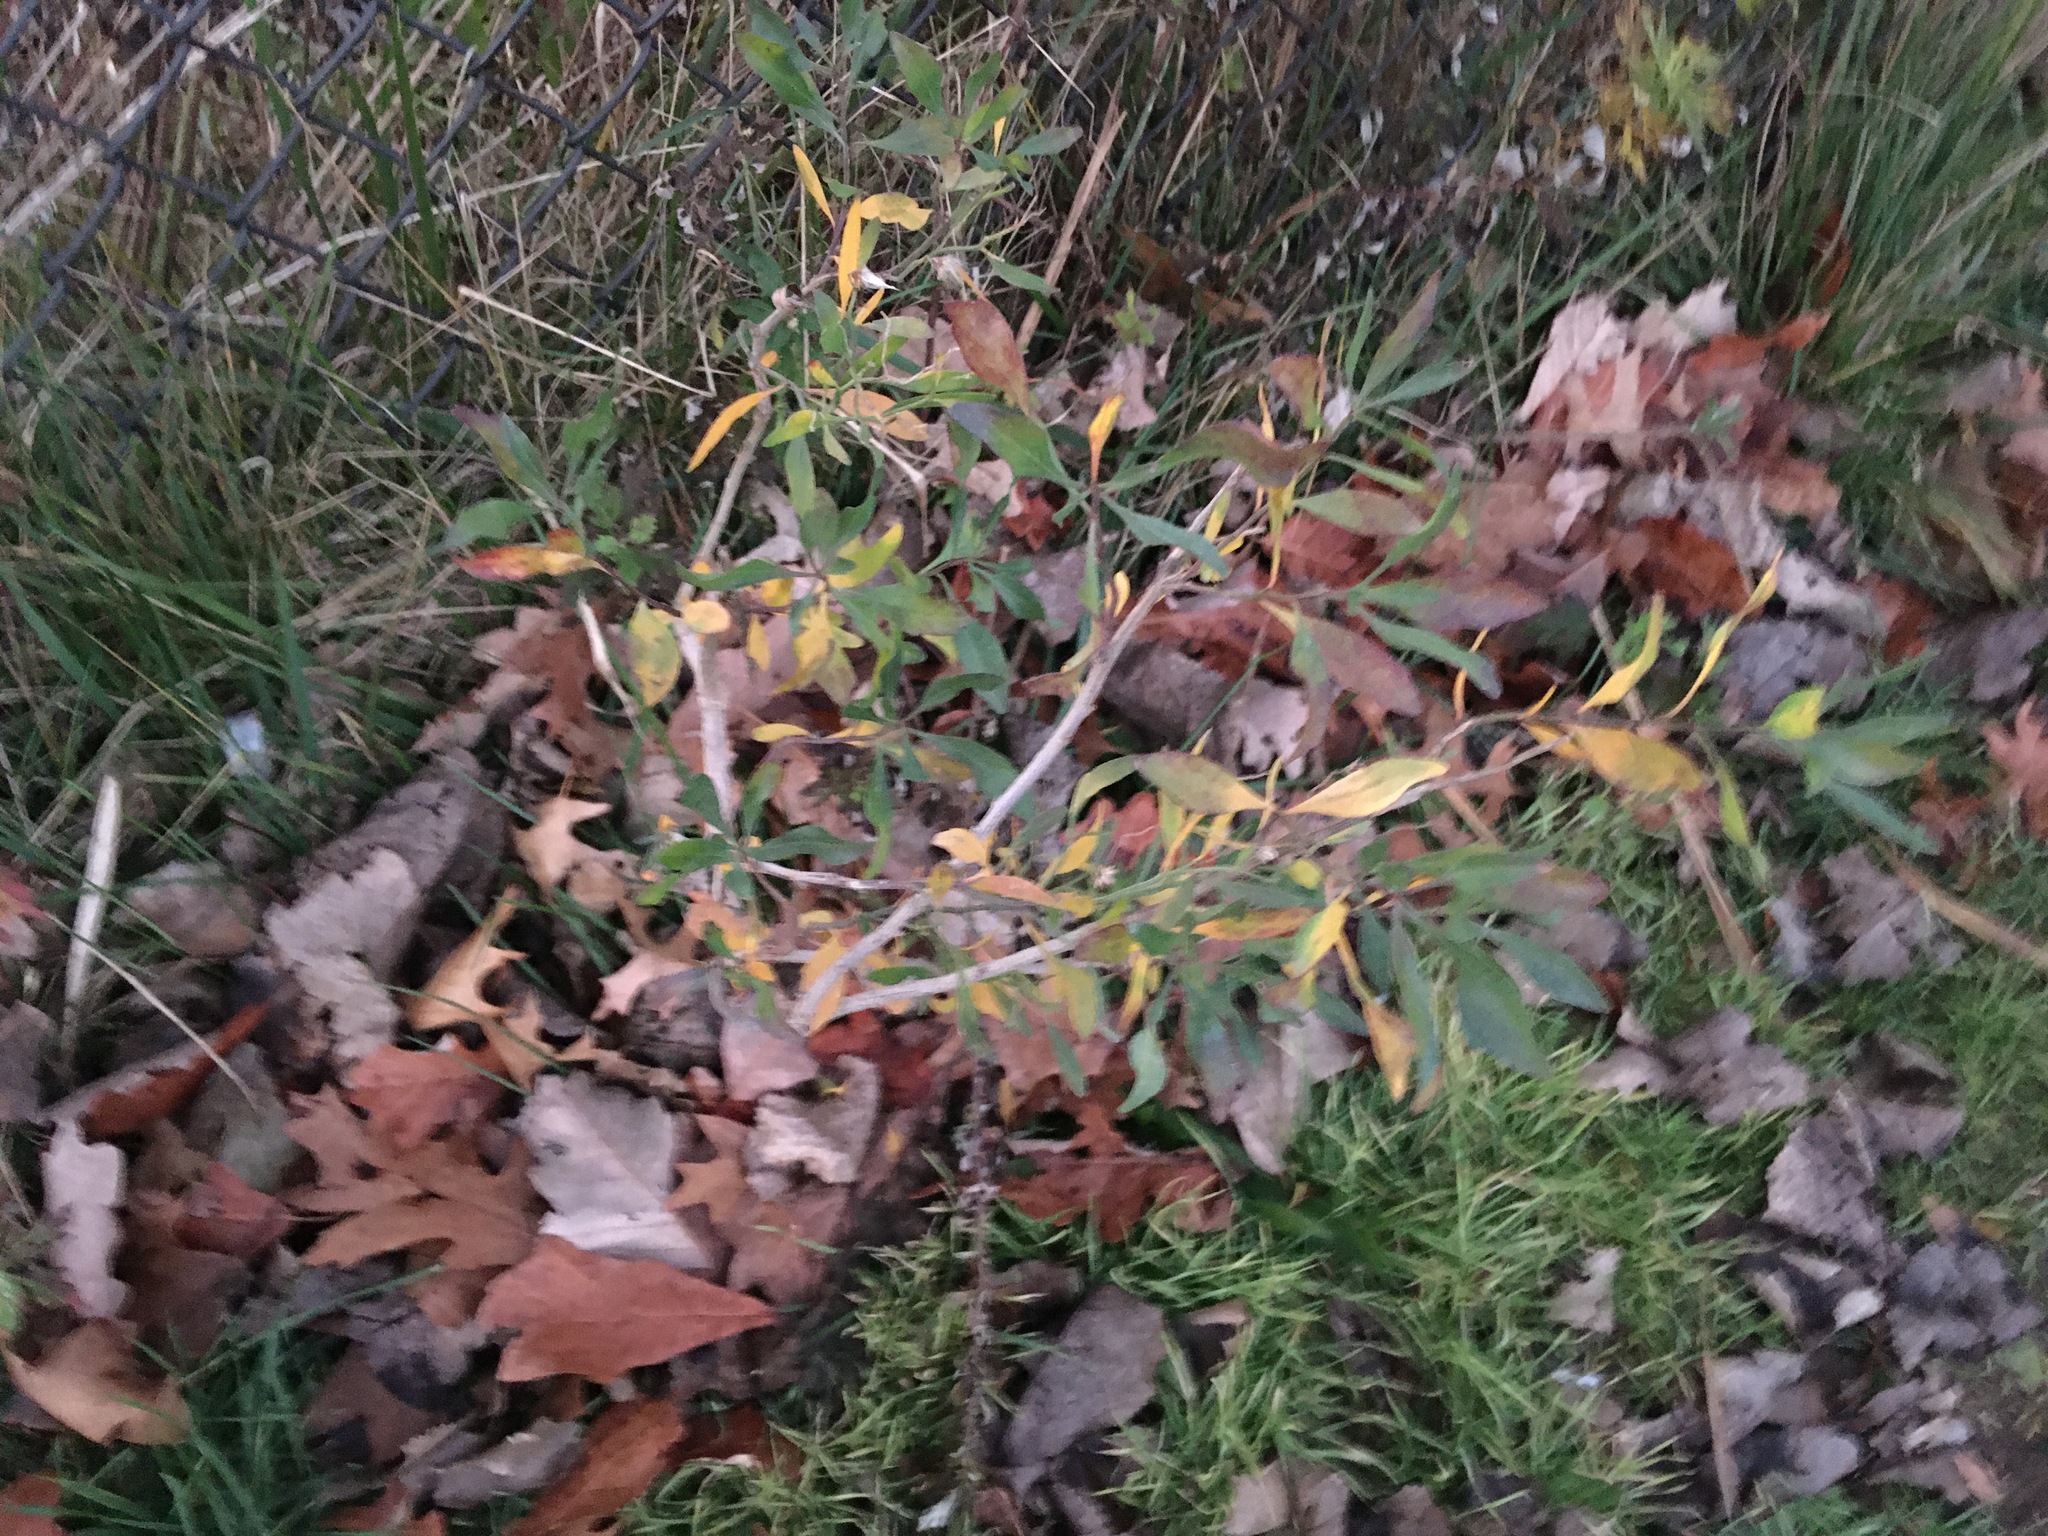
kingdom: Plantae
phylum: Tracheophyta
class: Magnoliopsida
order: Asterales
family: Asteraceae
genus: Baccharis
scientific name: Baccharis halimifolia
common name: Eastern baccharis
